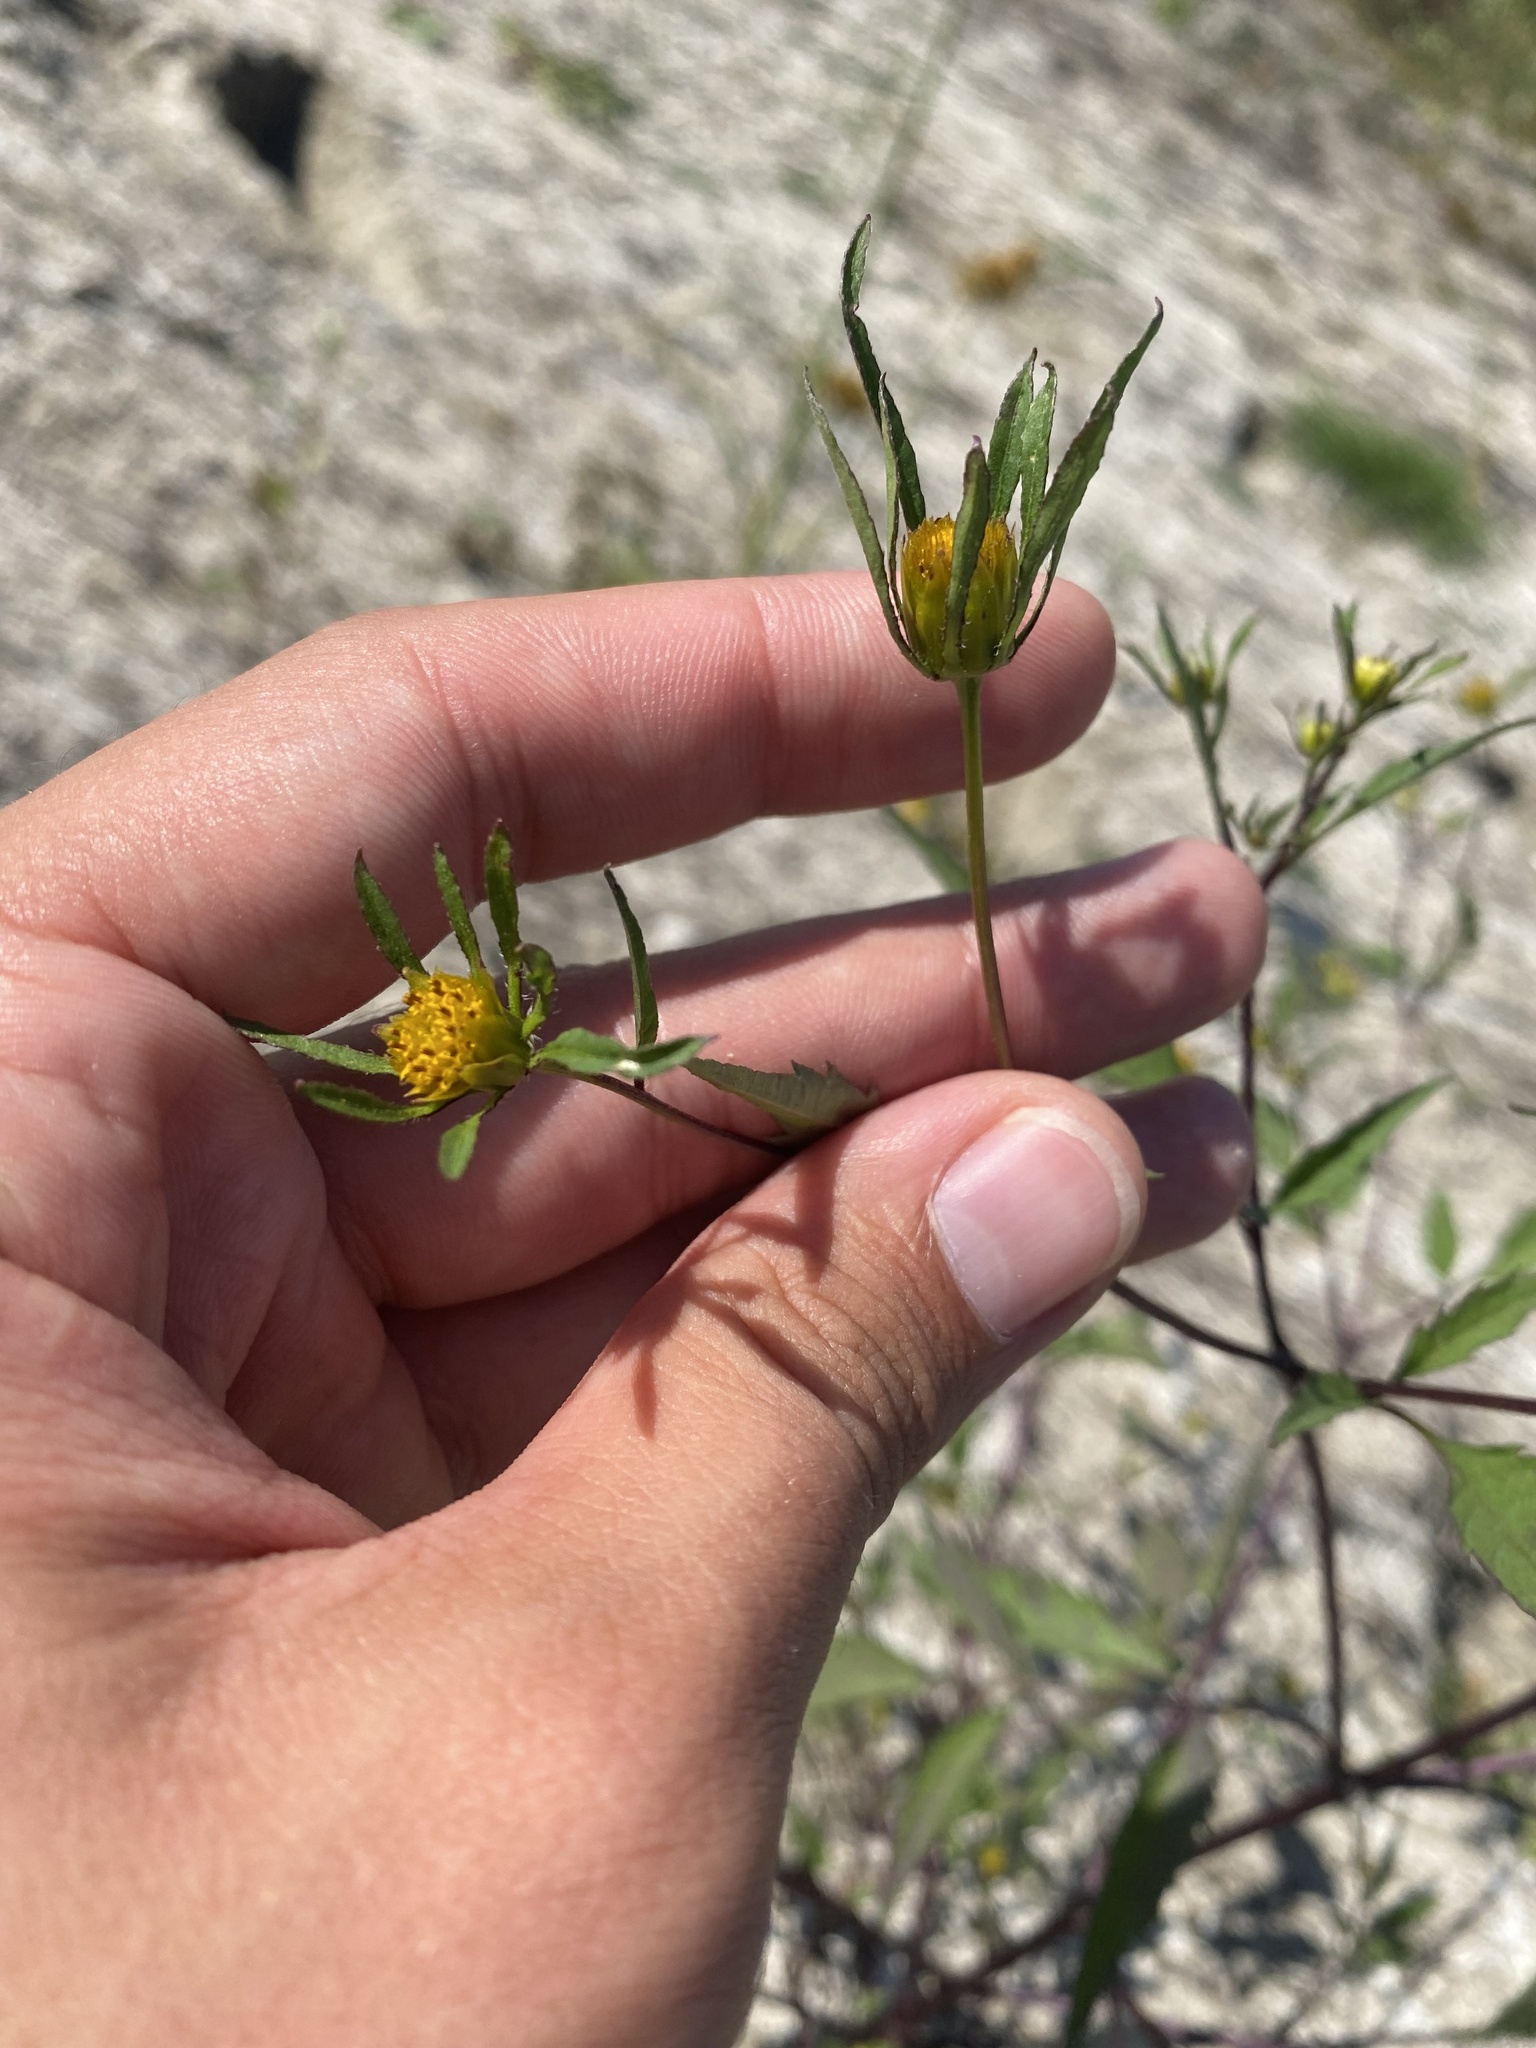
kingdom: Plantae
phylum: Tracheophyta
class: Magnoliopsida
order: Asterales
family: Asteraceae
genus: Bidens
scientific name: Bidens frondosa
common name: Beggarticks
